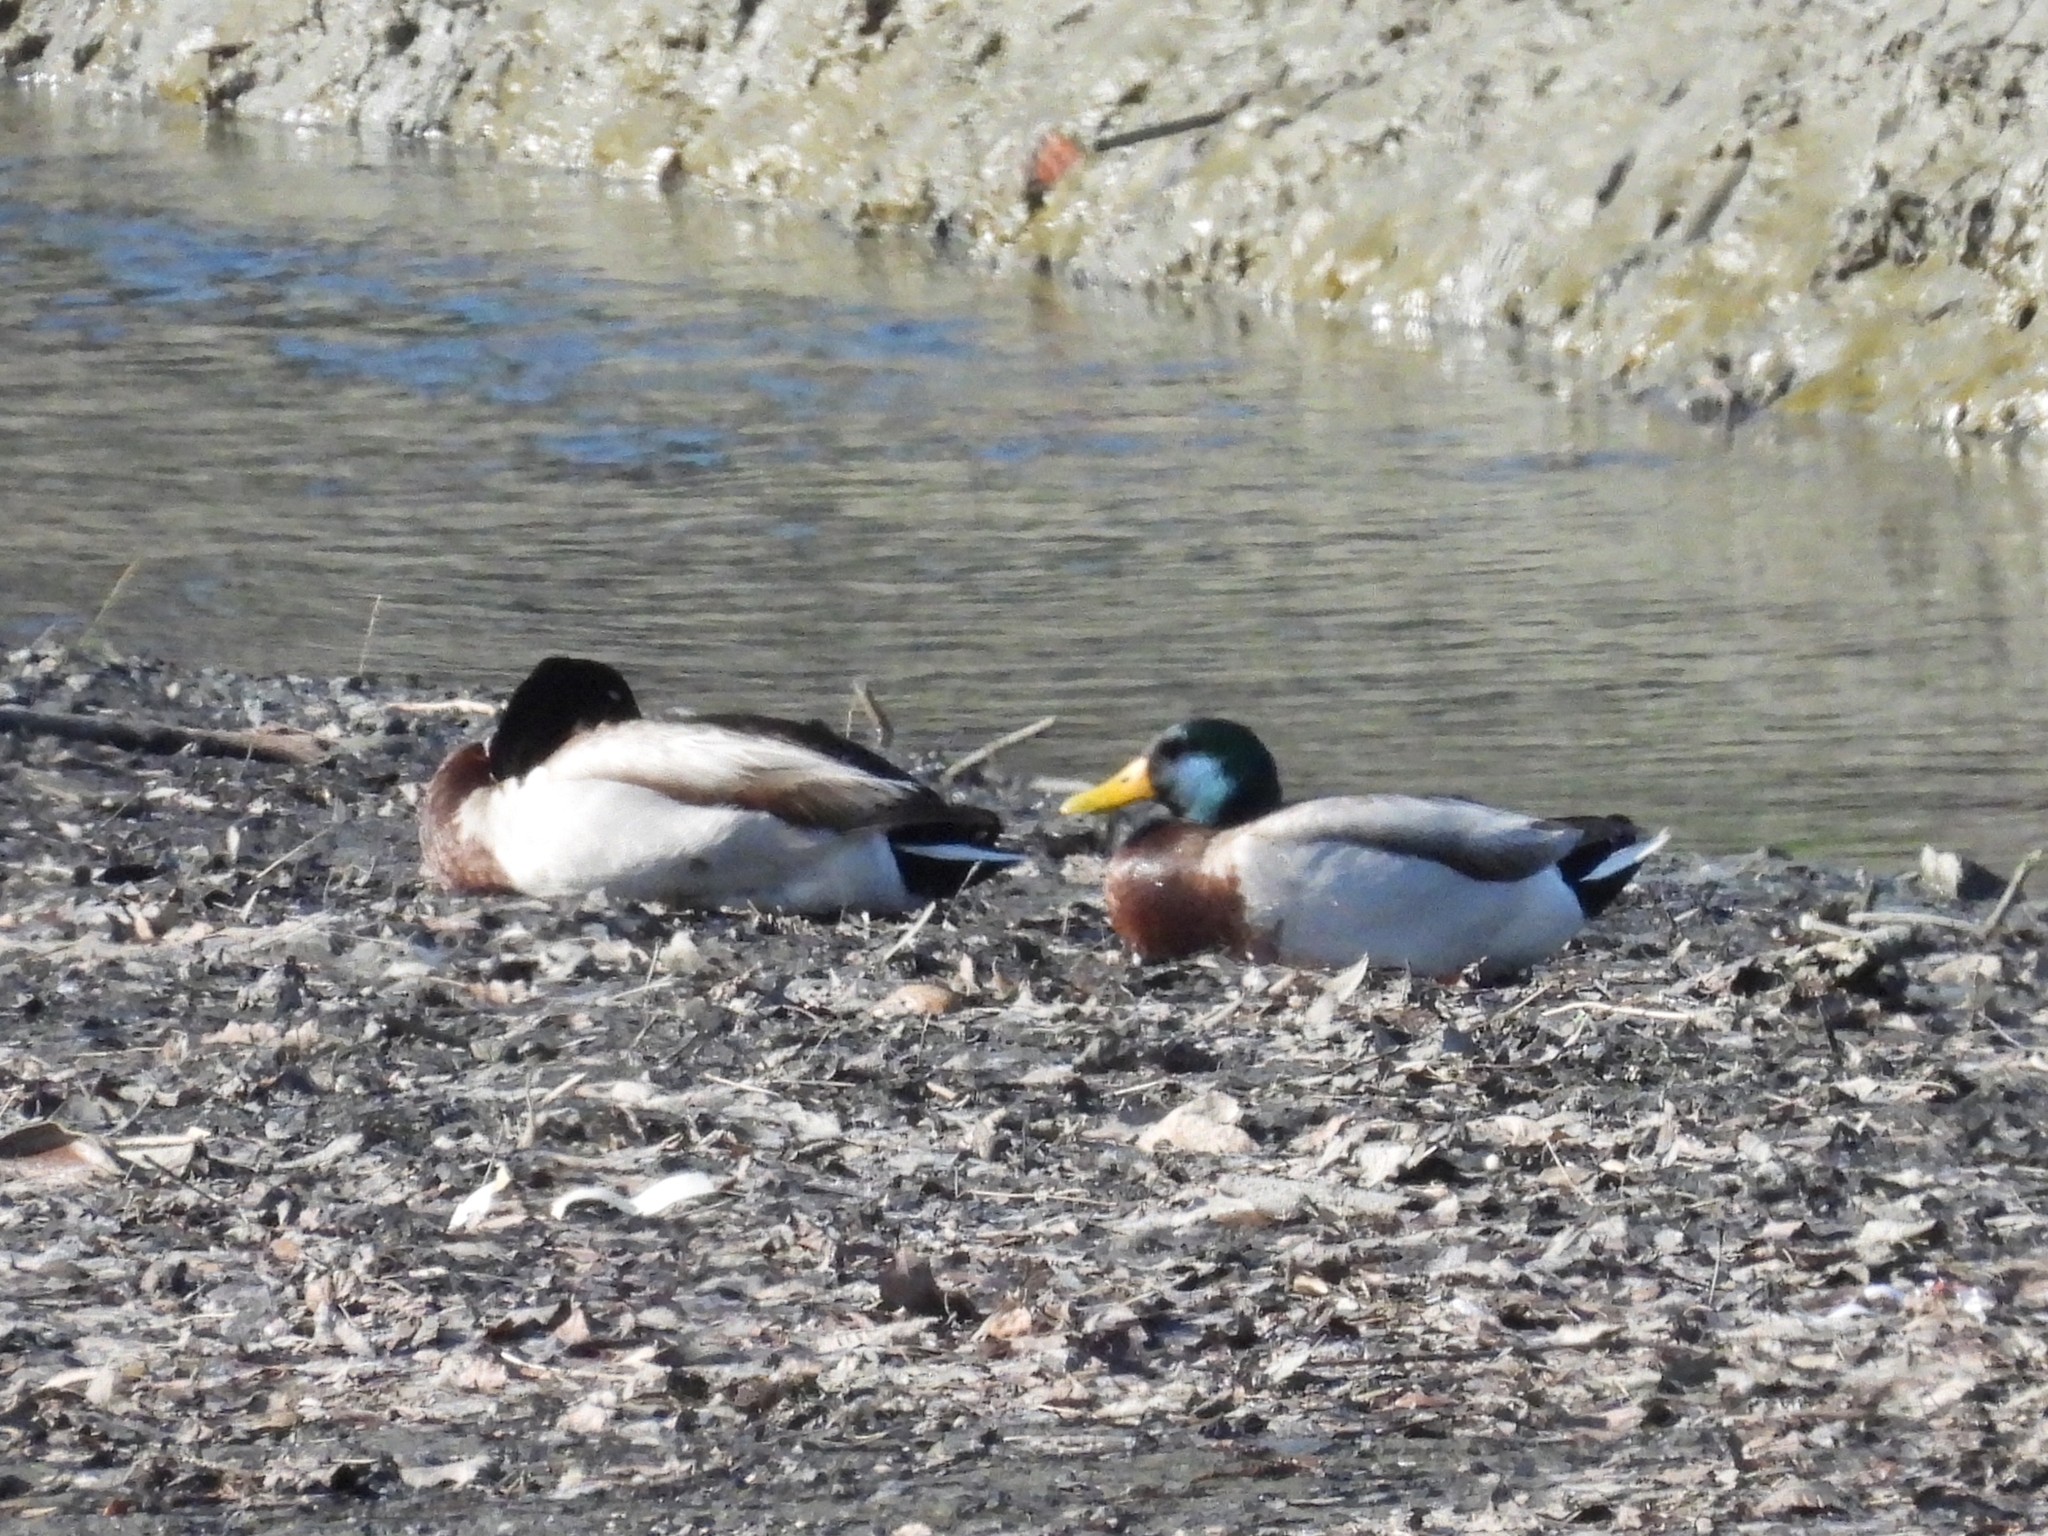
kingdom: Animalia
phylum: Chordata
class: Aves
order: Anseriformes
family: Anatidae
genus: Anas
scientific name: Anas platyrhynchos
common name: Mallard
